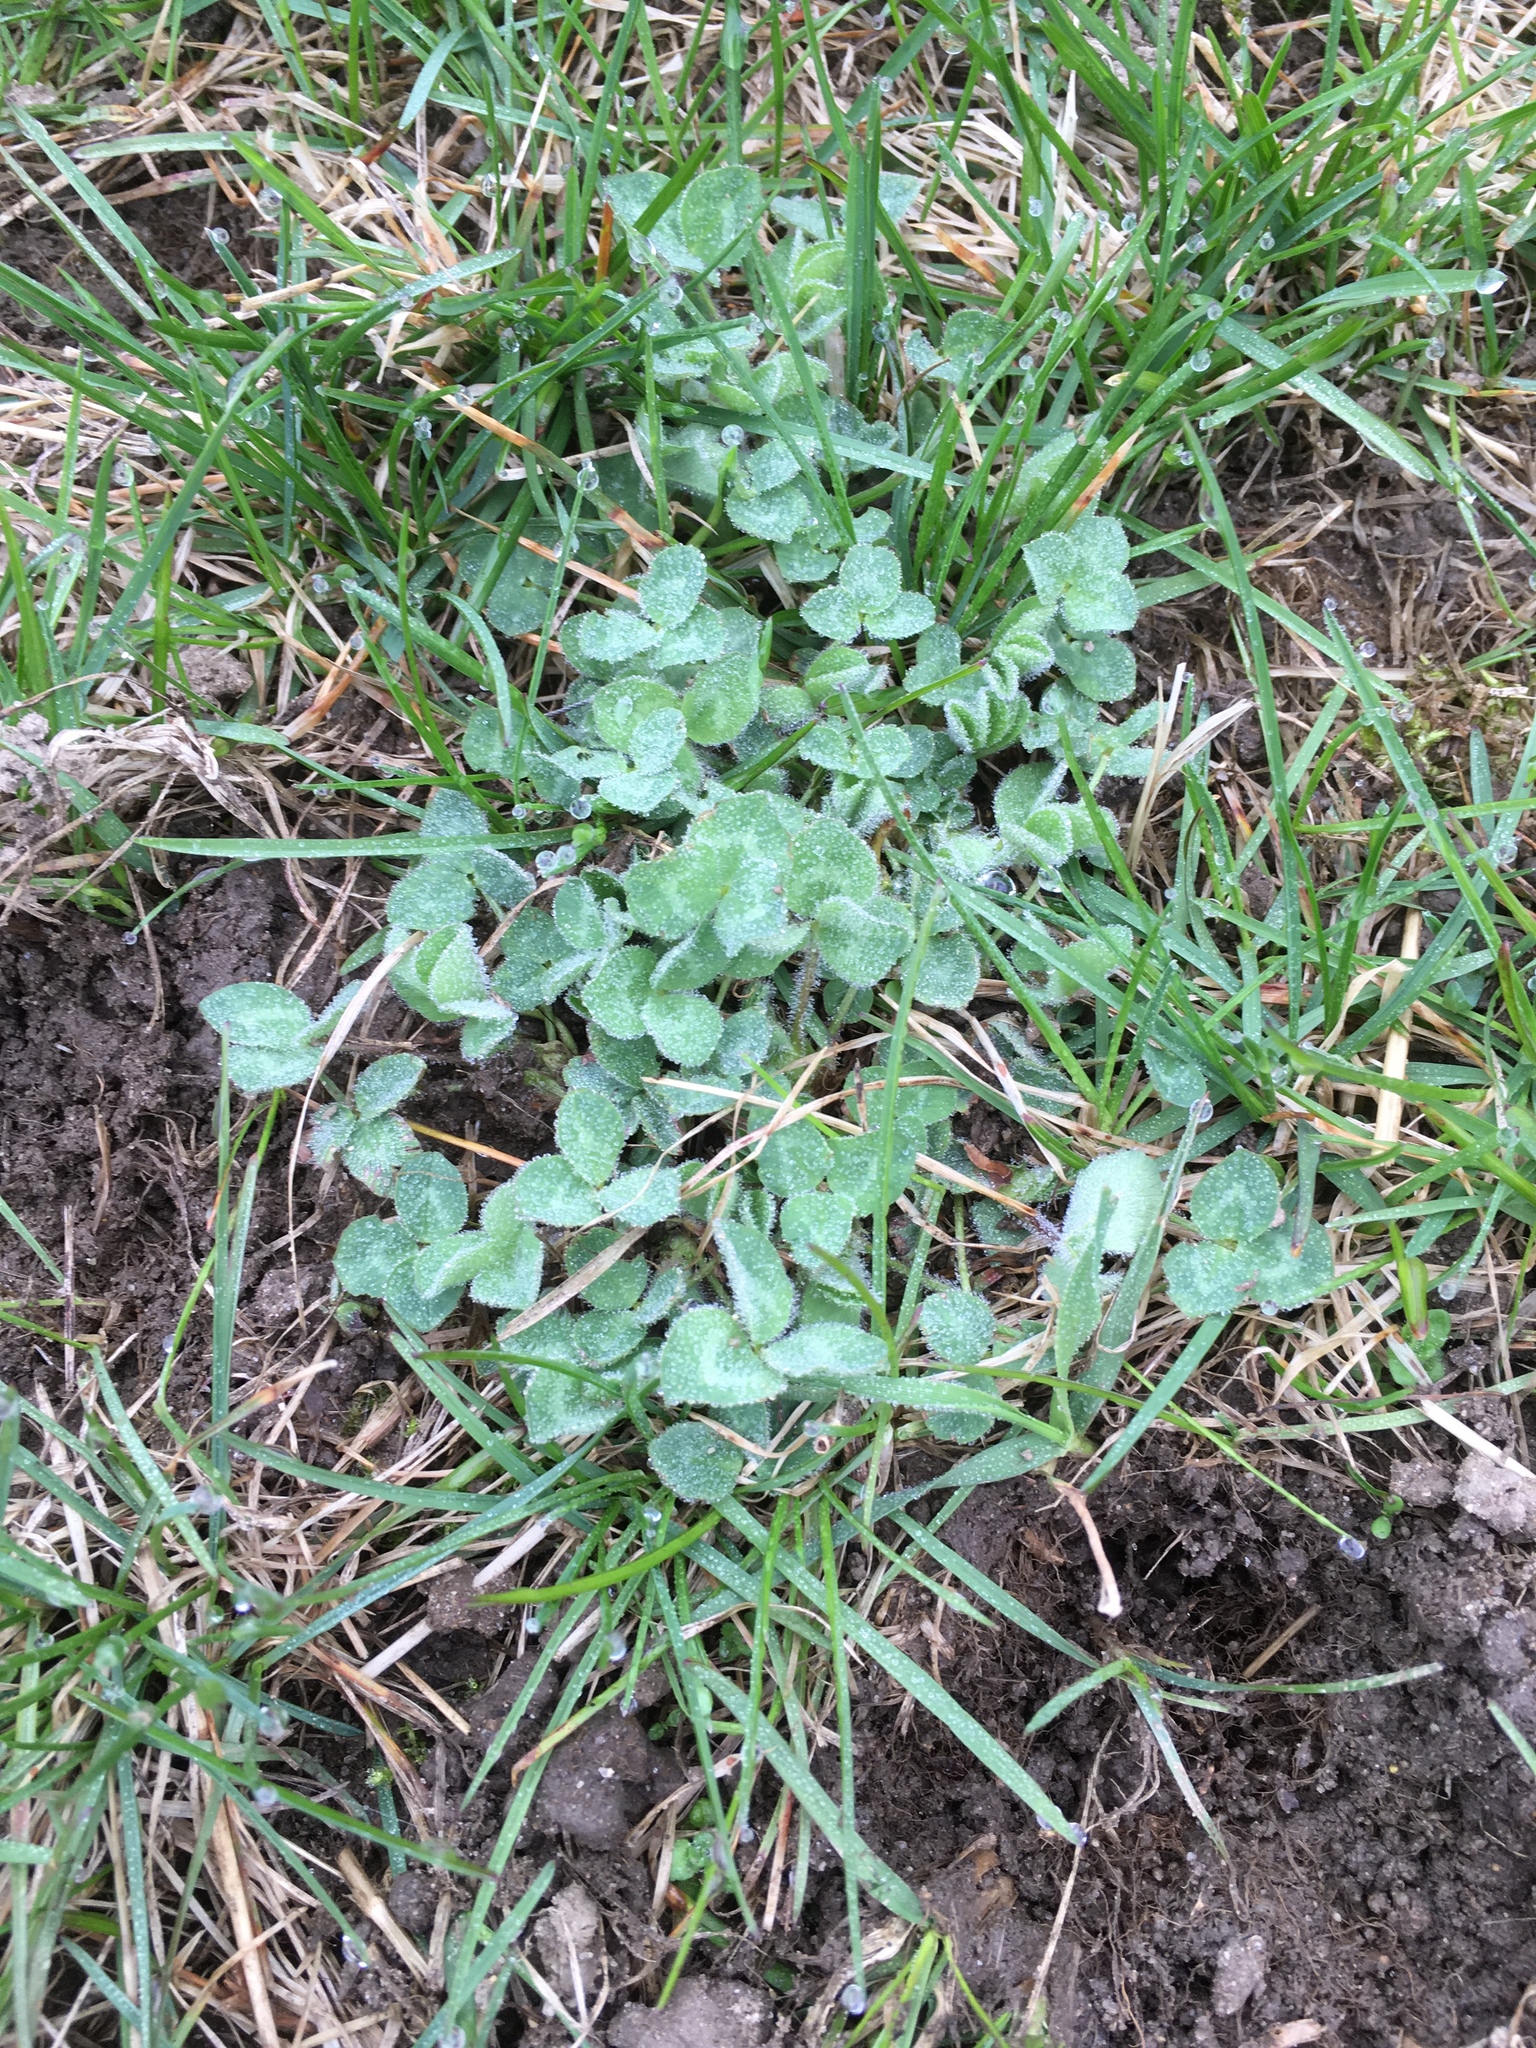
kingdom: Plantae
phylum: Tracheophyta
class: Magnoliopsida
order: Fabales
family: Fabaceae
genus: Trifolium
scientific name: Trifolium pratense
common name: Red clover
